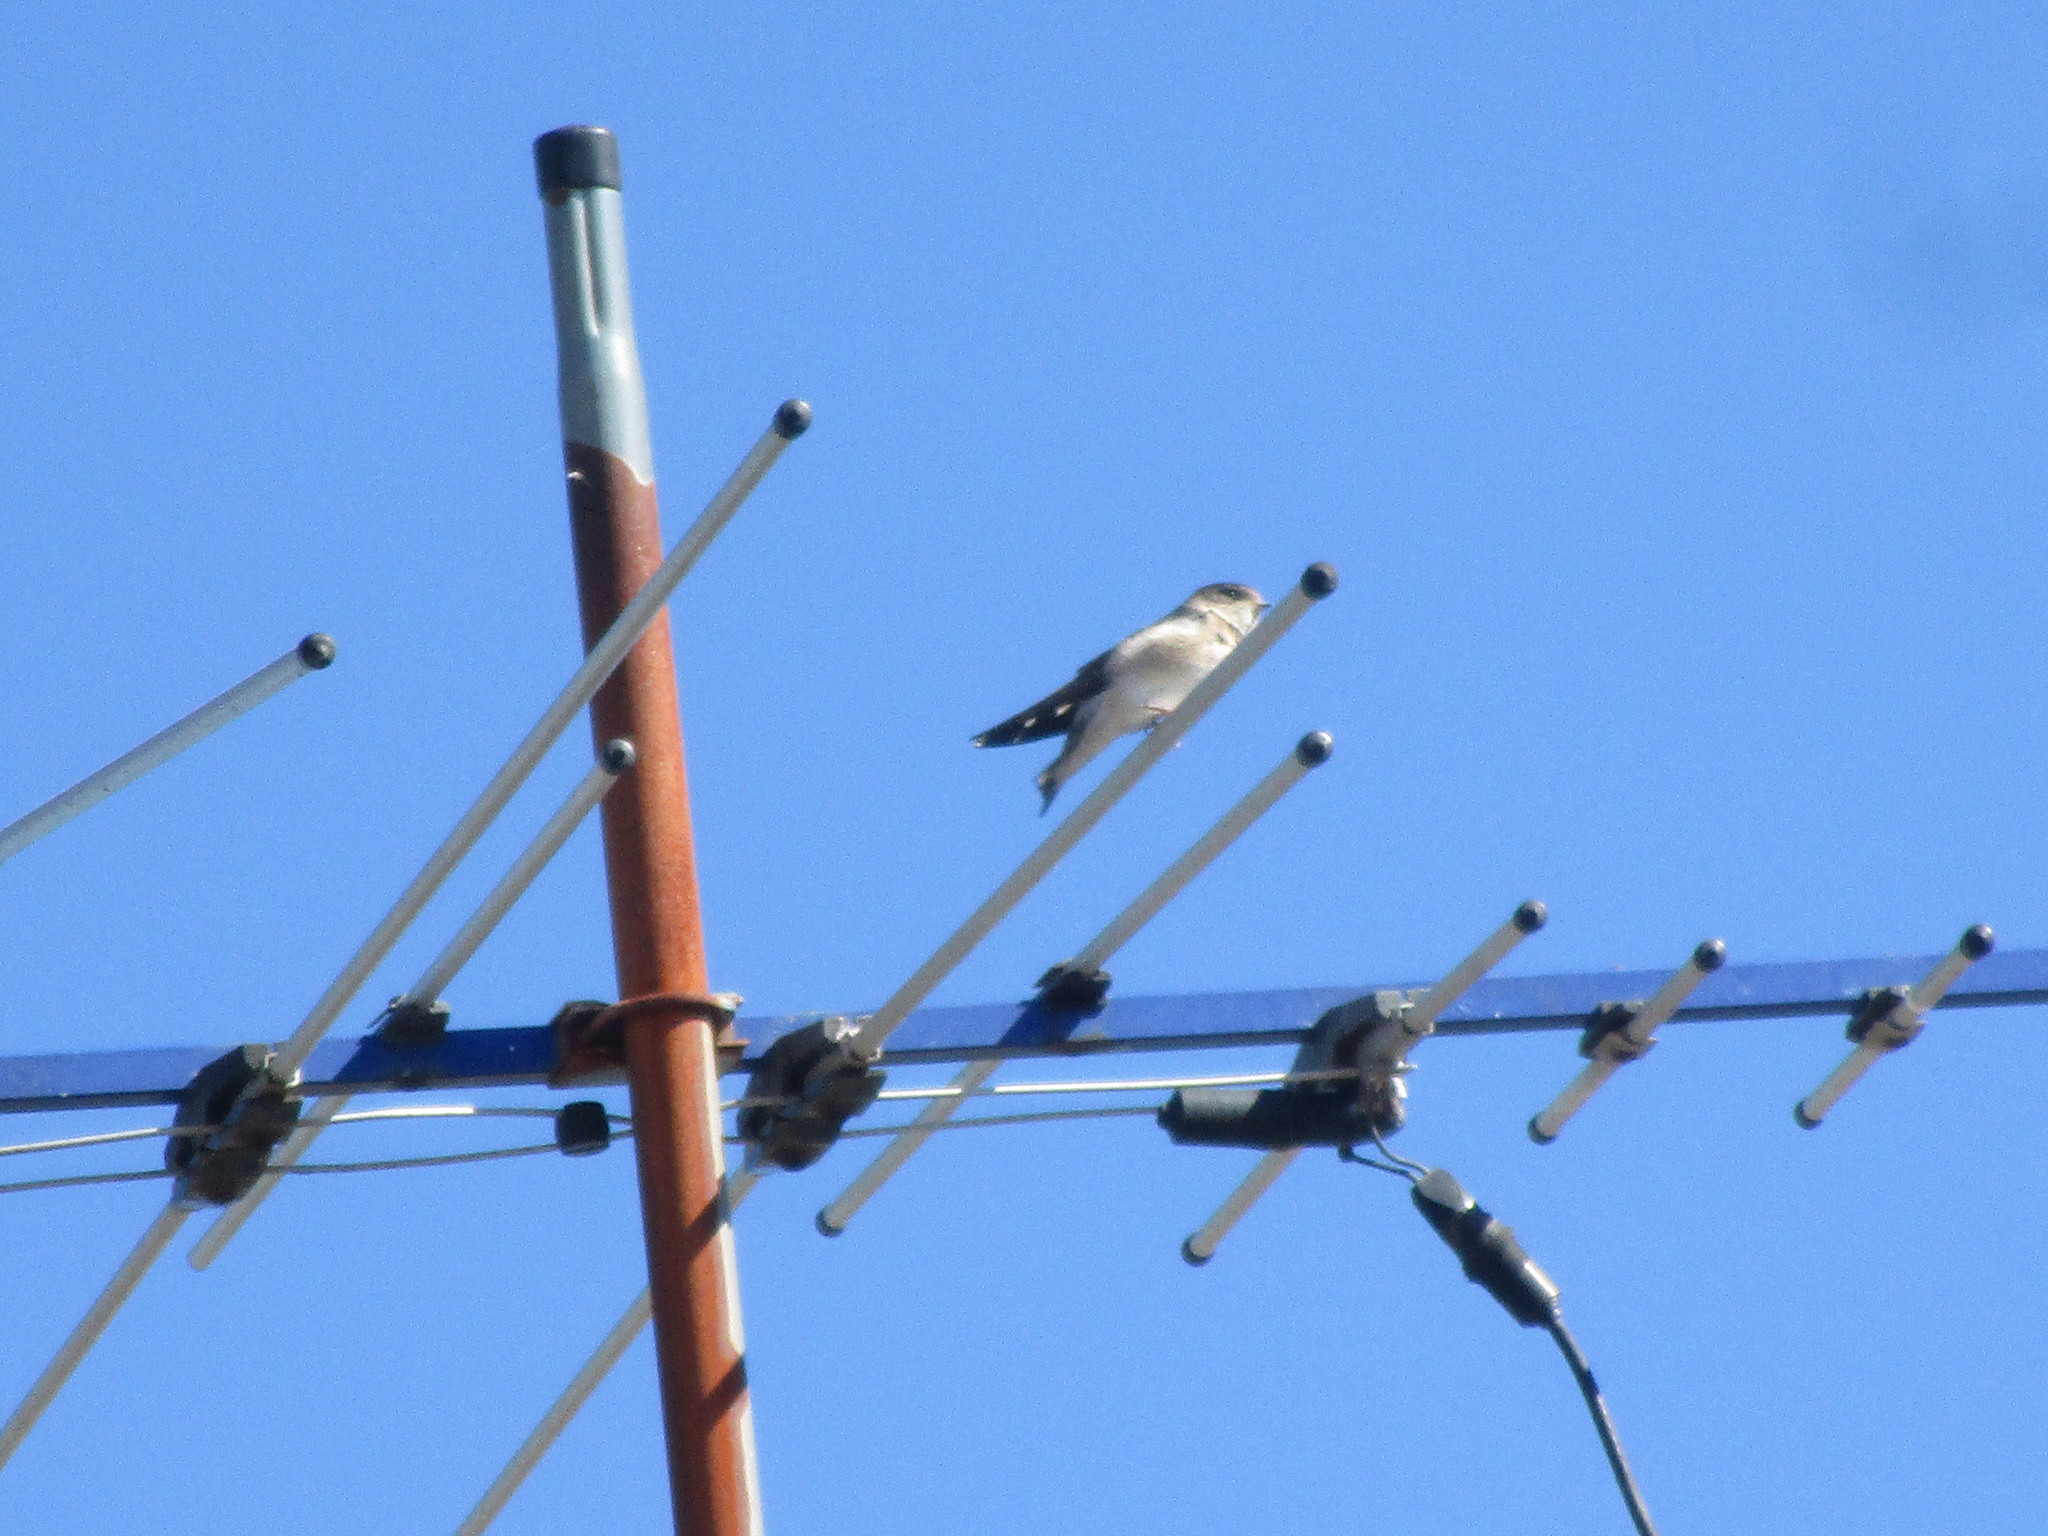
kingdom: Animalia
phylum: Chordata
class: Aves
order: Passeriformes
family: Hirundinidae
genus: Petrochelidon
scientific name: Petrochelidon nigricans
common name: Tree martin
